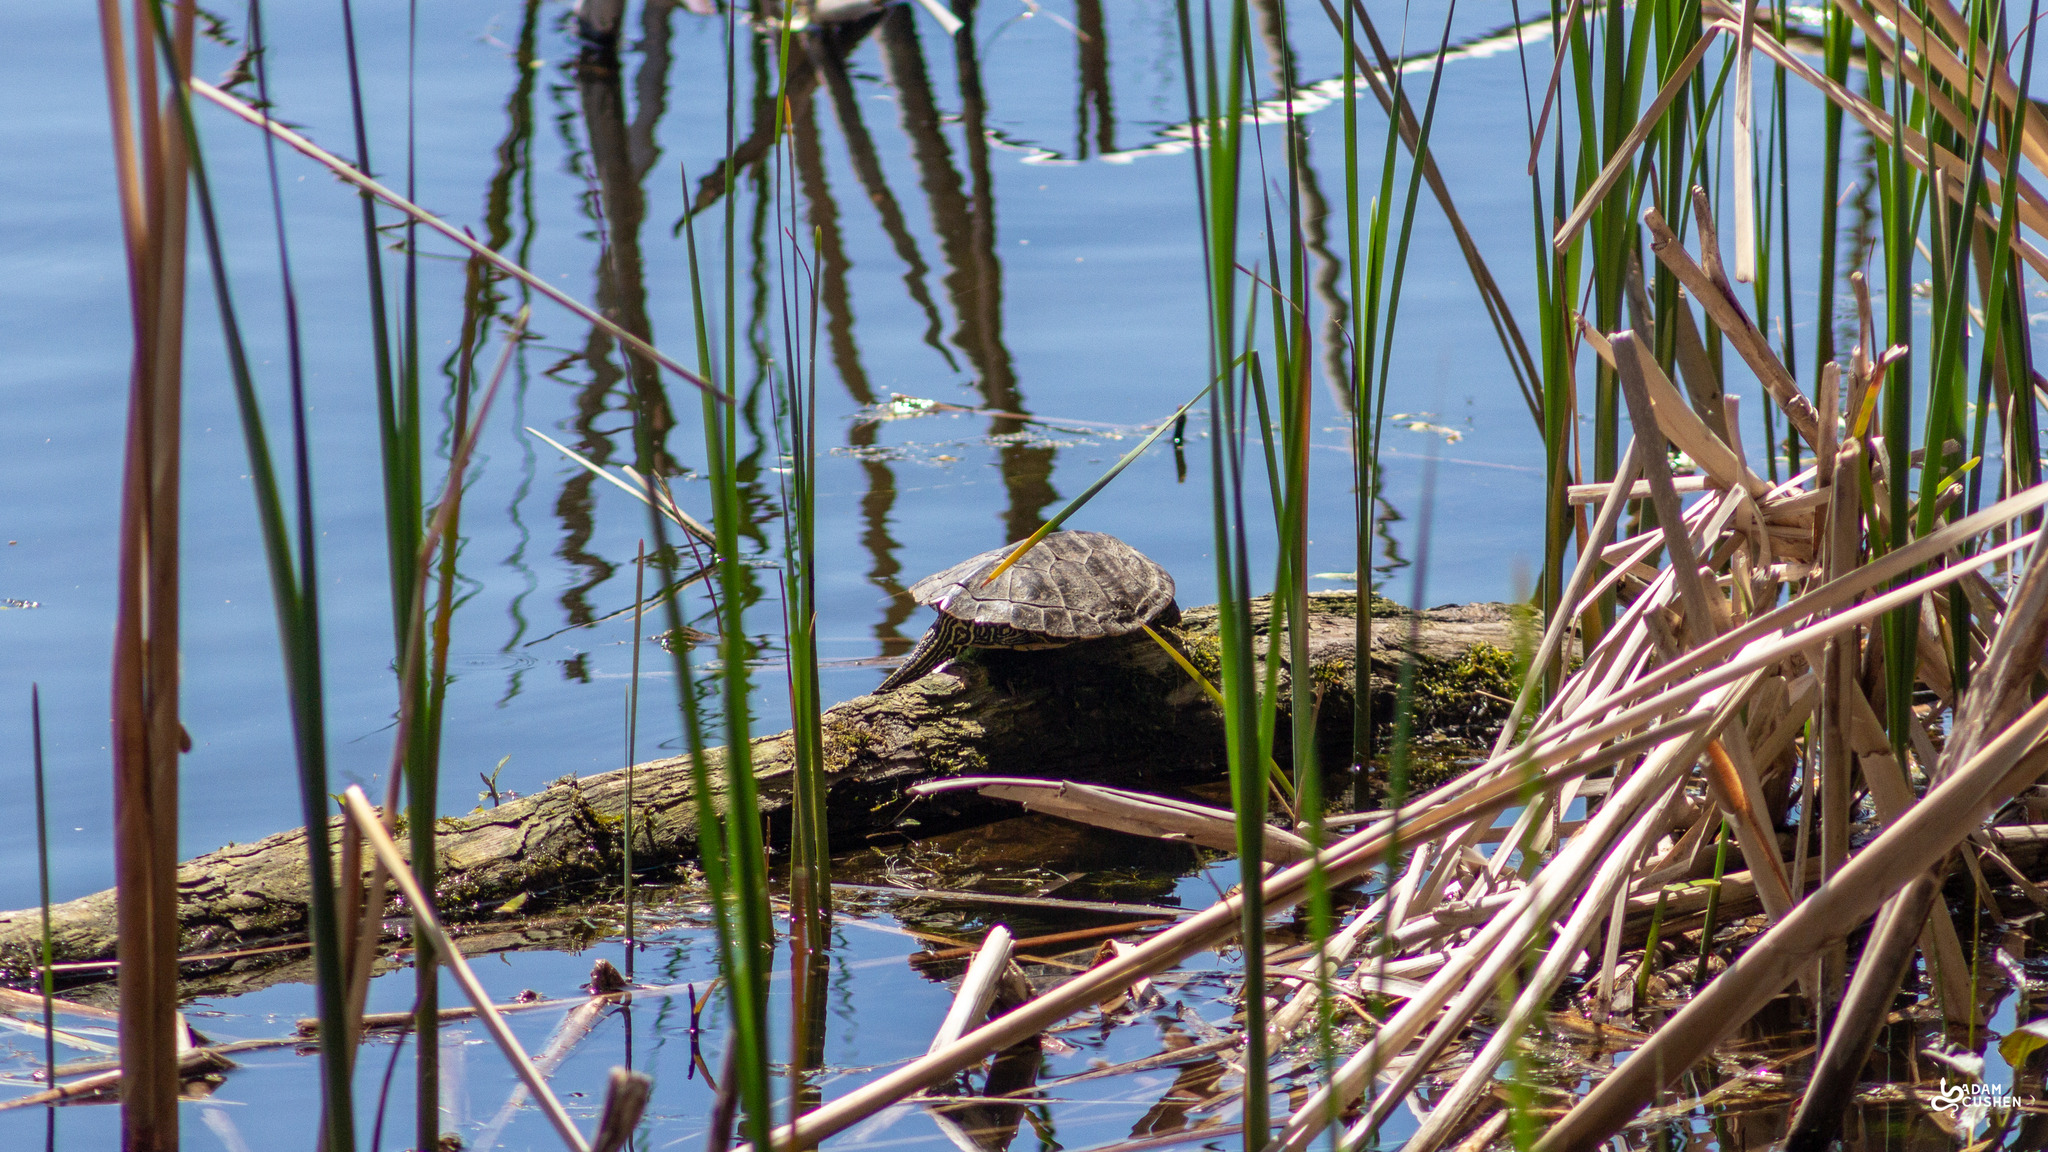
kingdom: Animalia
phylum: Chordata
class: Testudines
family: Emydidae
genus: Graptemys
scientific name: Graptemys geographica
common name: Common map turtle
